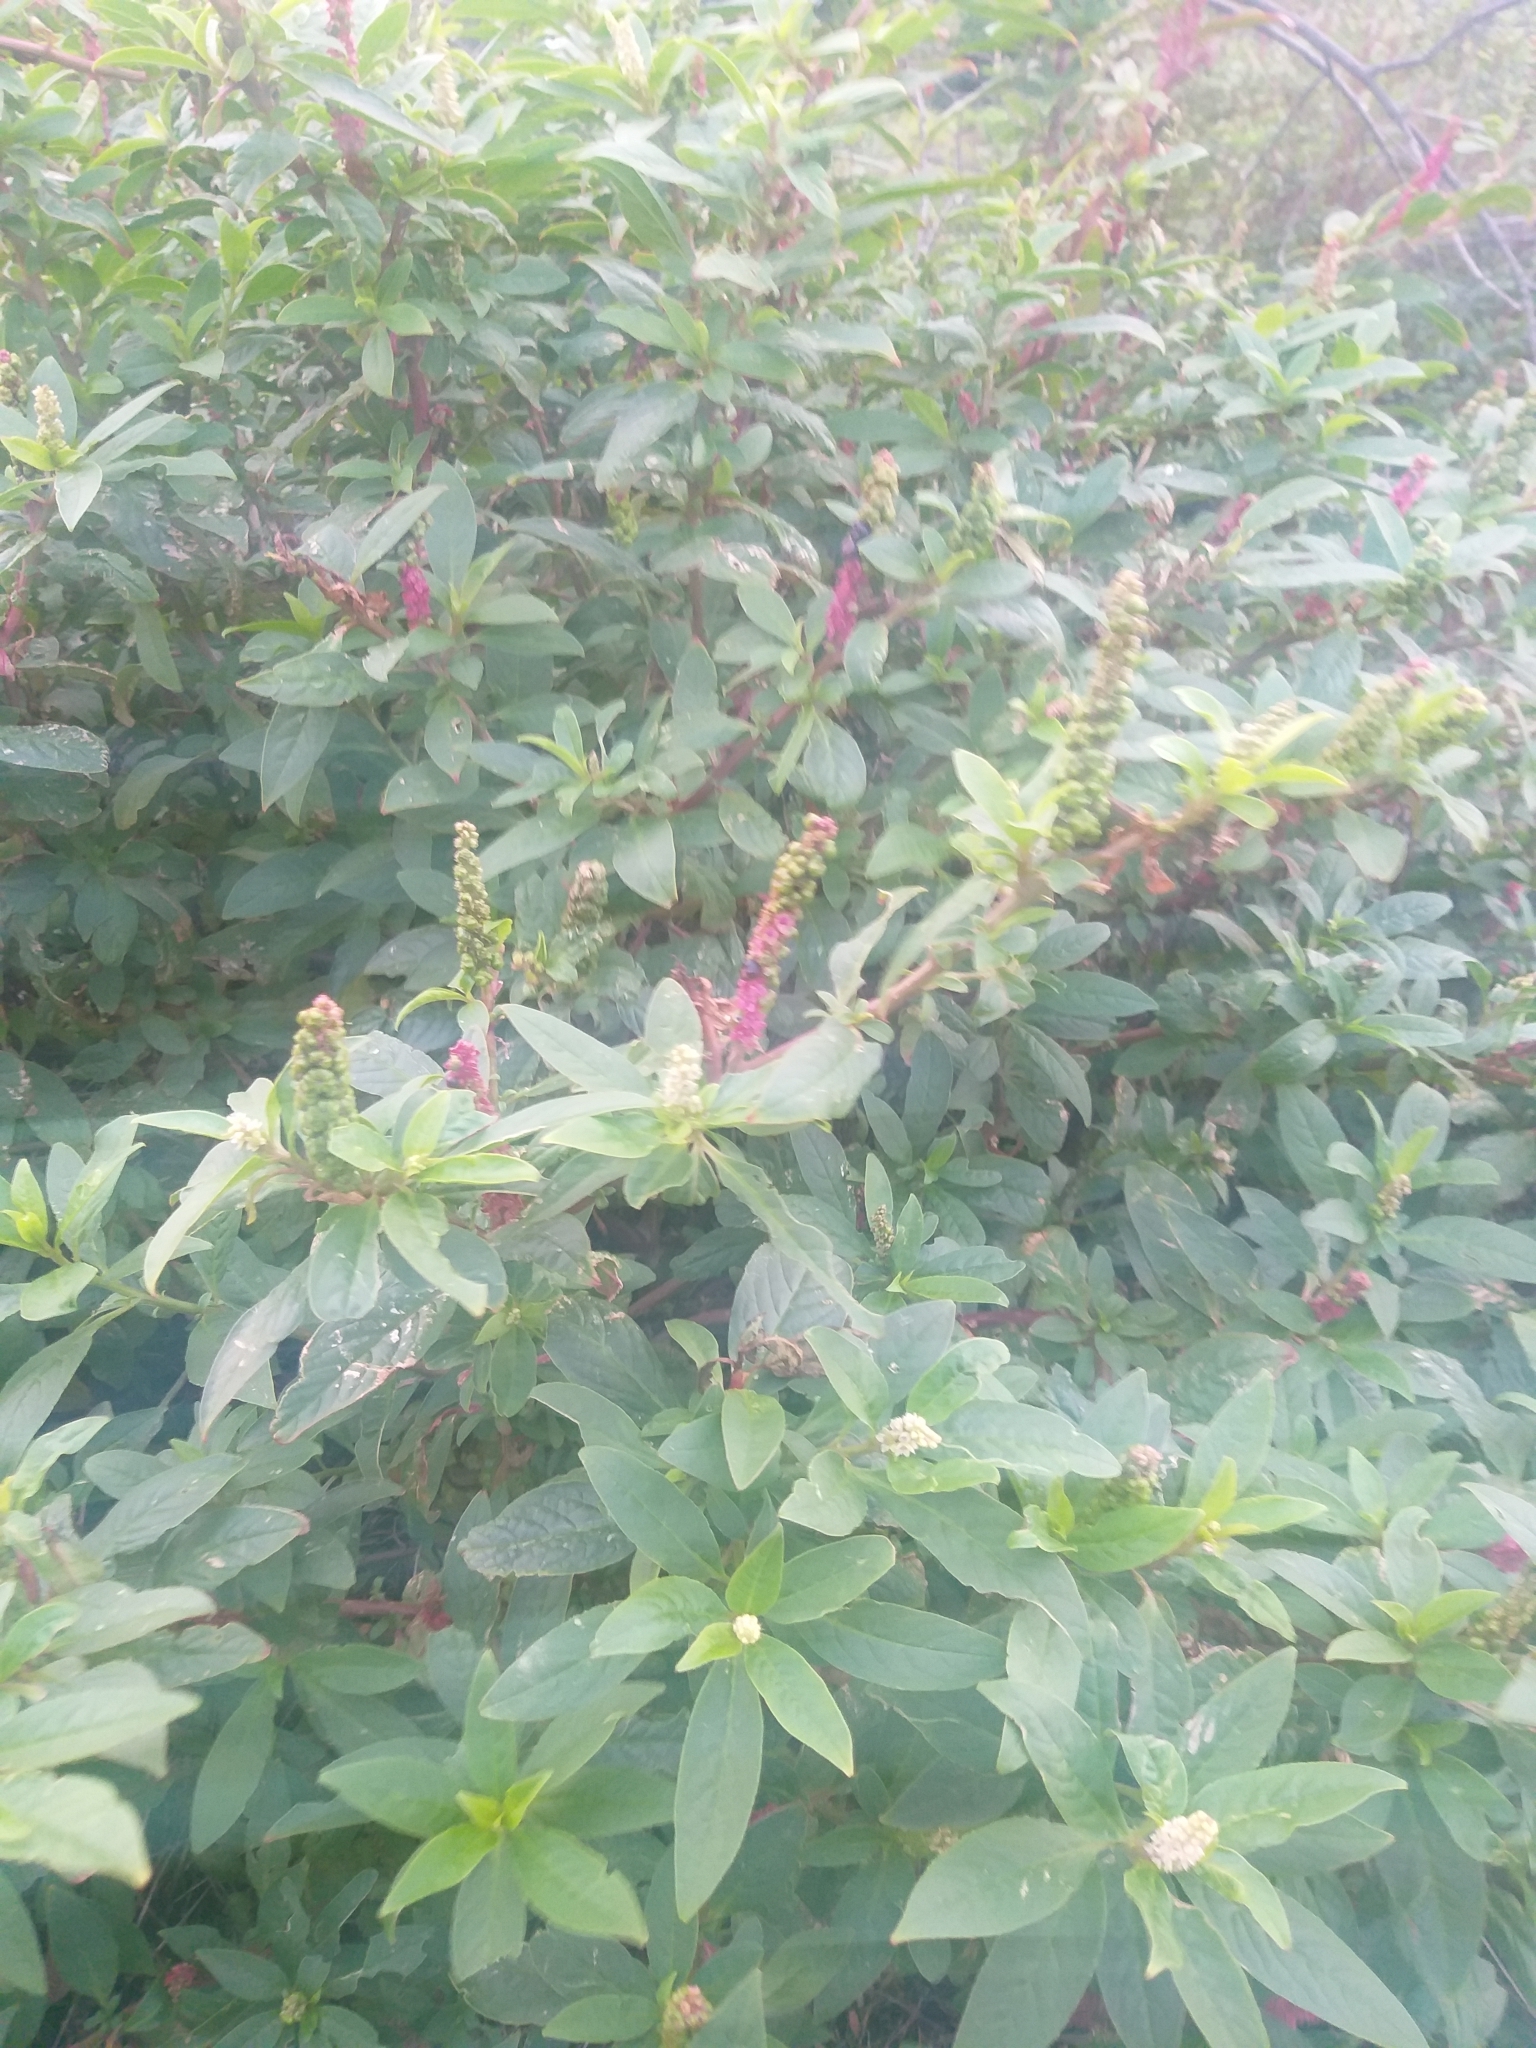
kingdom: Plantae
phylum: Tracheophyta
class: Magnoliopsida
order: Caryophyllales
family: Phytolaccaceae
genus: Phytolacca
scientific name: Phytolacca icosandra
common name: Button pokeweed
